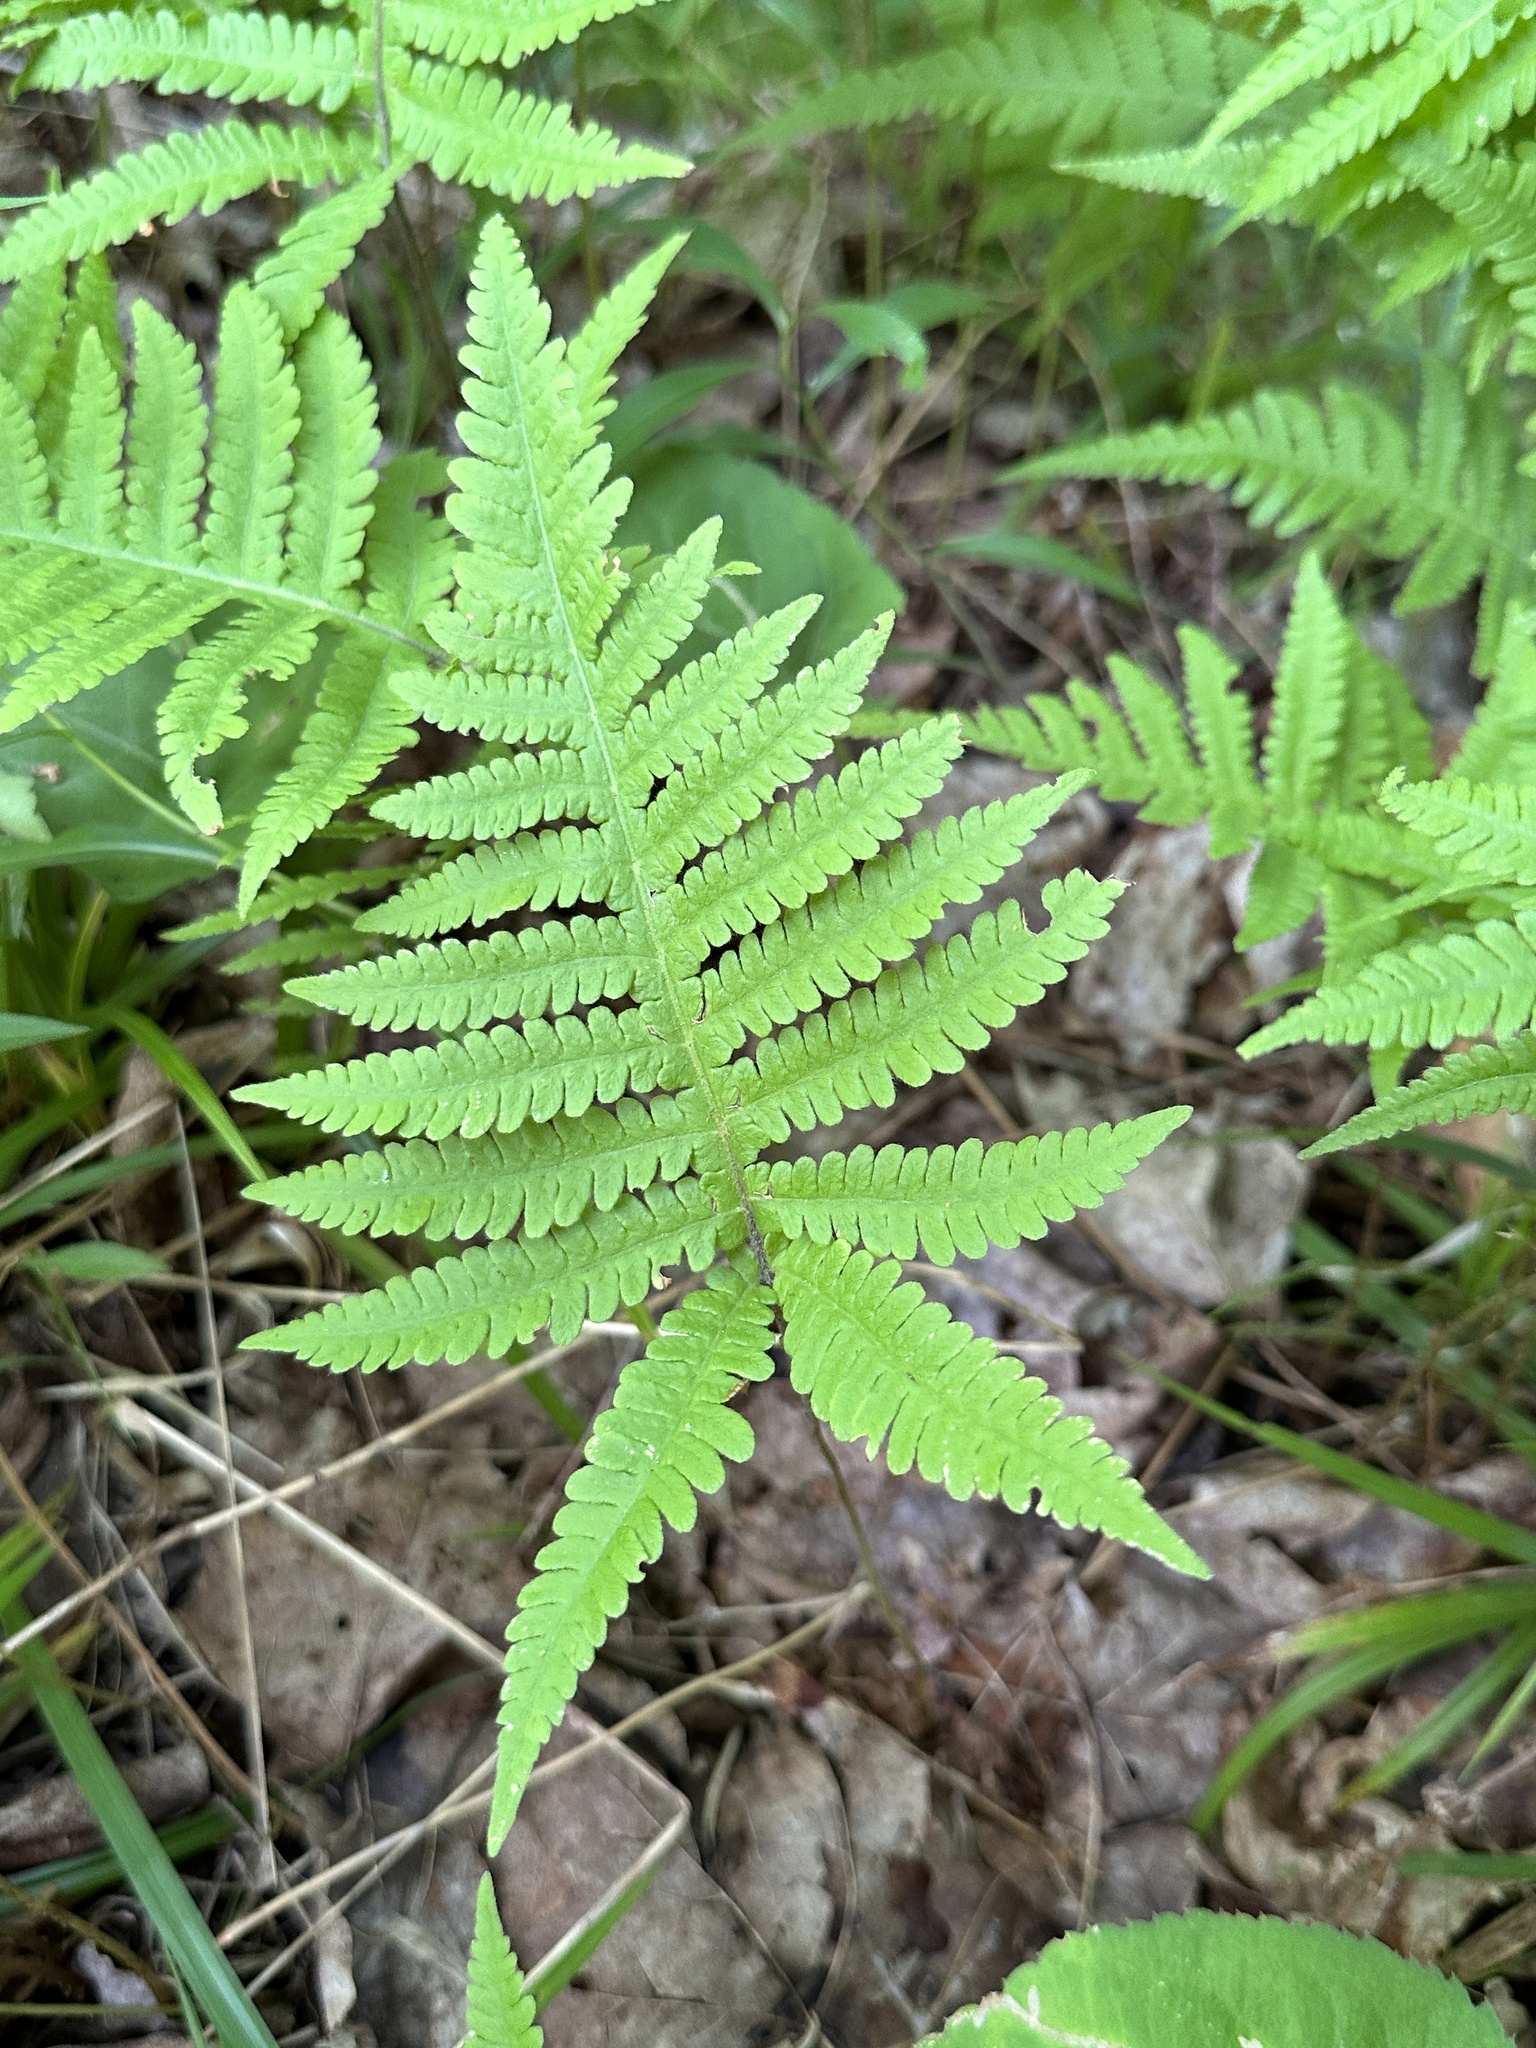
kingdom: Plantae
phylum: Tracheophyta
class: Polypodiopsida
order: Polypodiales
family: Thelypteridaceae
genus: Phegopteris
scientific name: Phegopteris connectilis
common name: Beech fern
